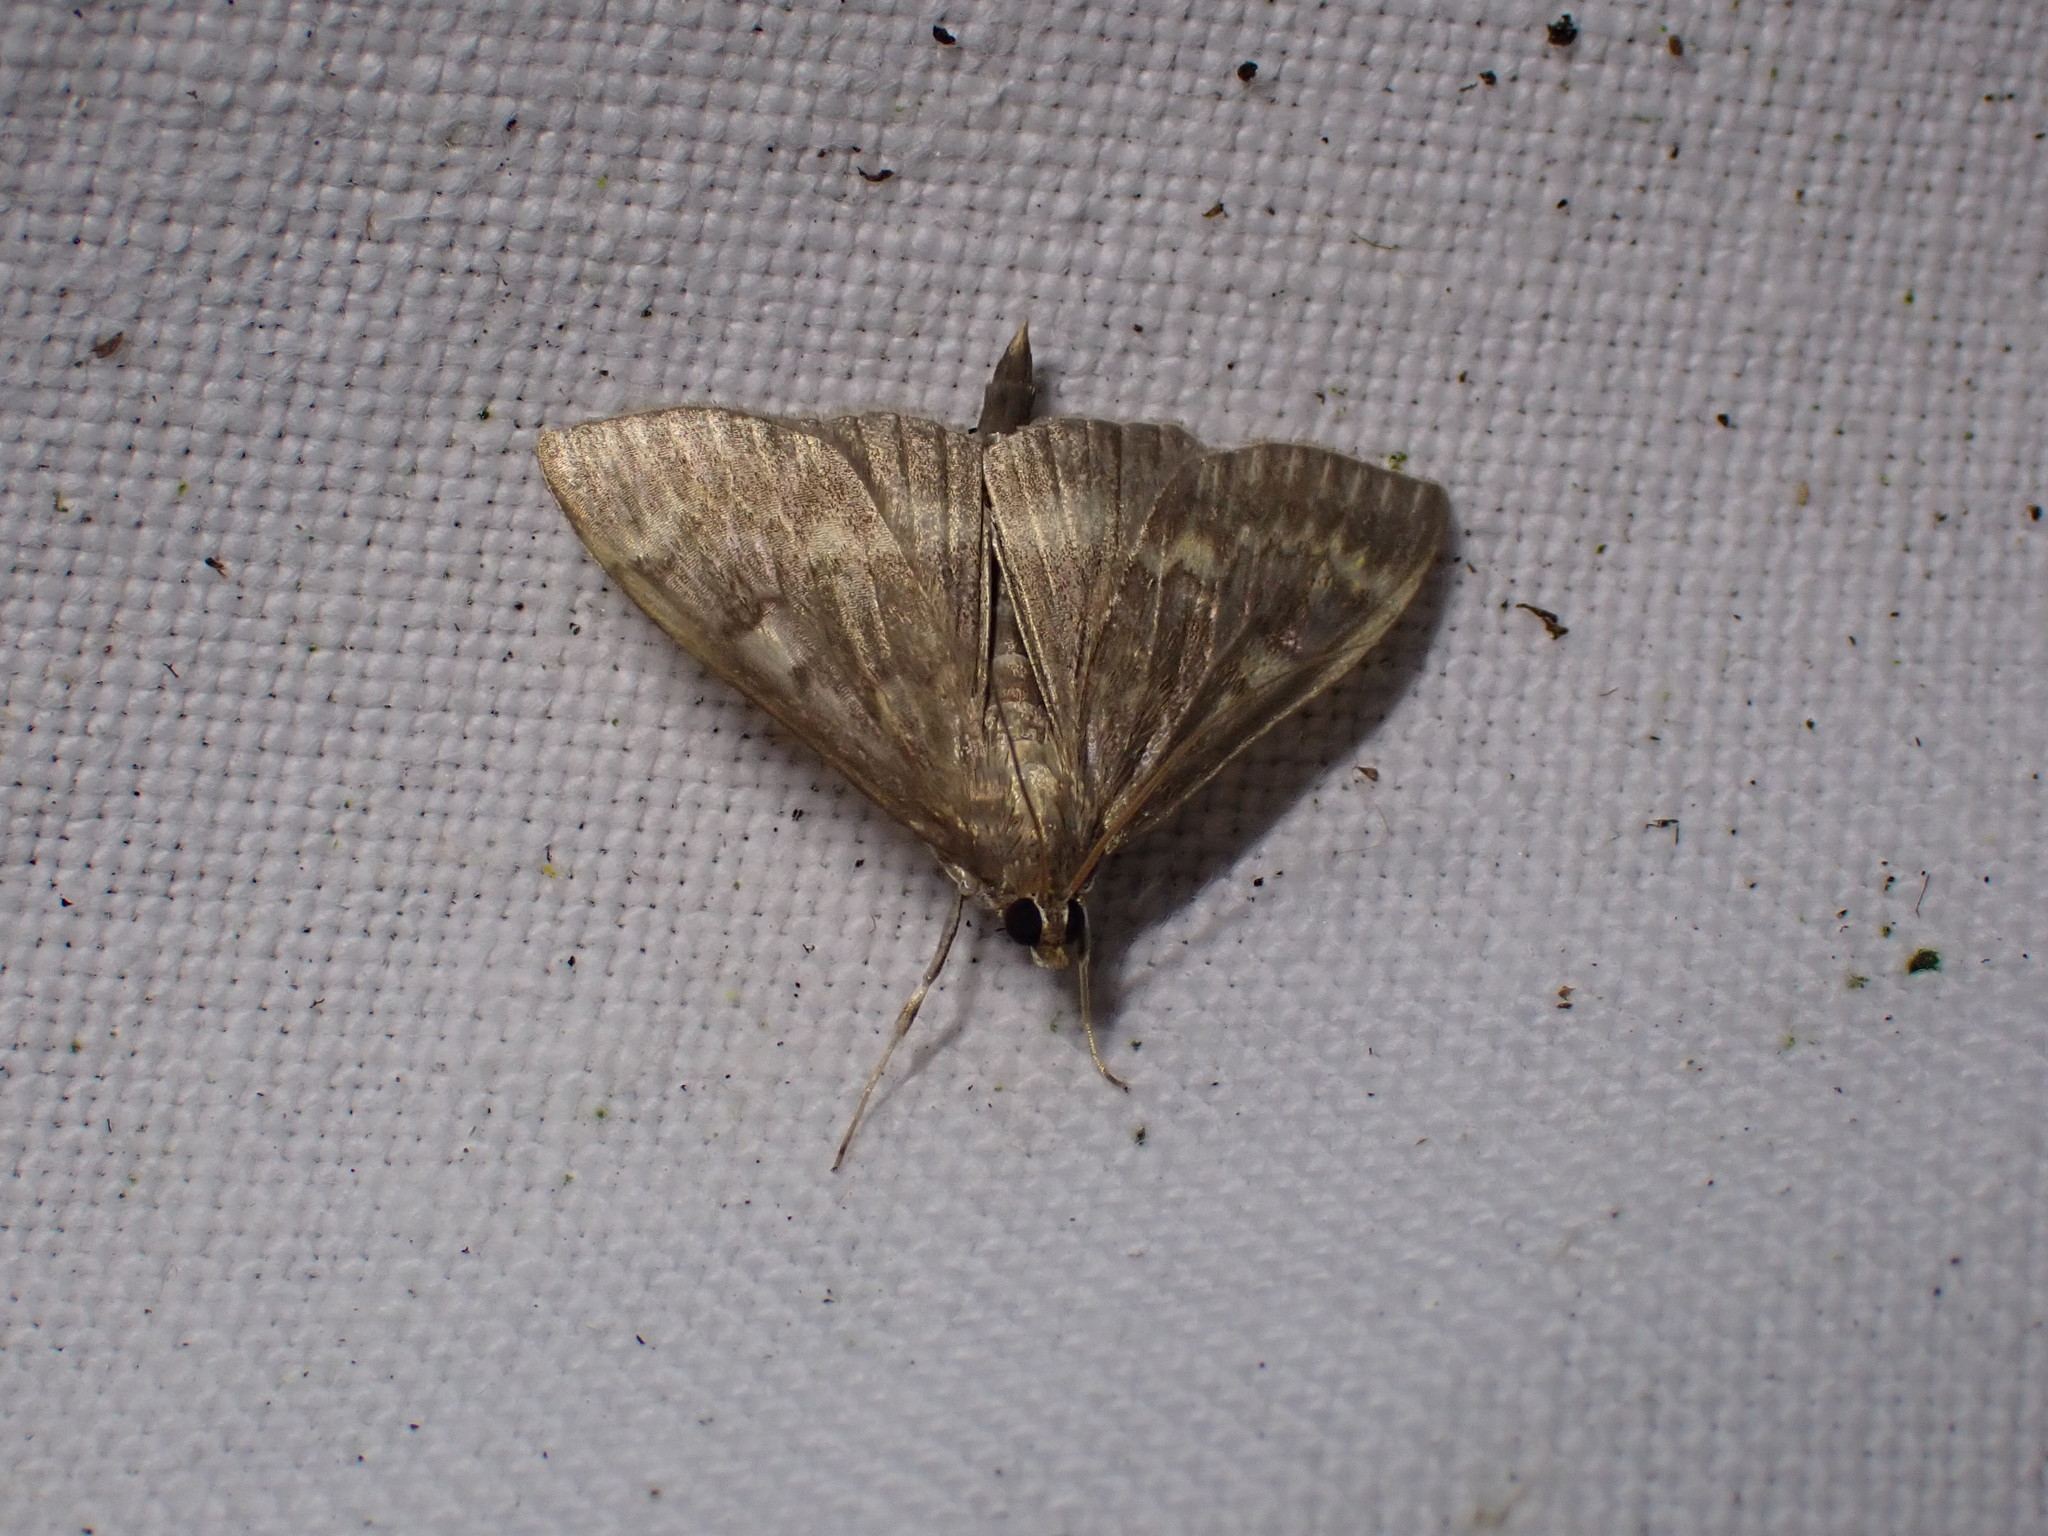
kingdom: Animalia
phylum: Arthropoda
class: Insecta
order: Lepidoptera
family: Crambidae
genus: Ostrinia
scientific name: Ostrinia nubilalis
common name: European corn borer
